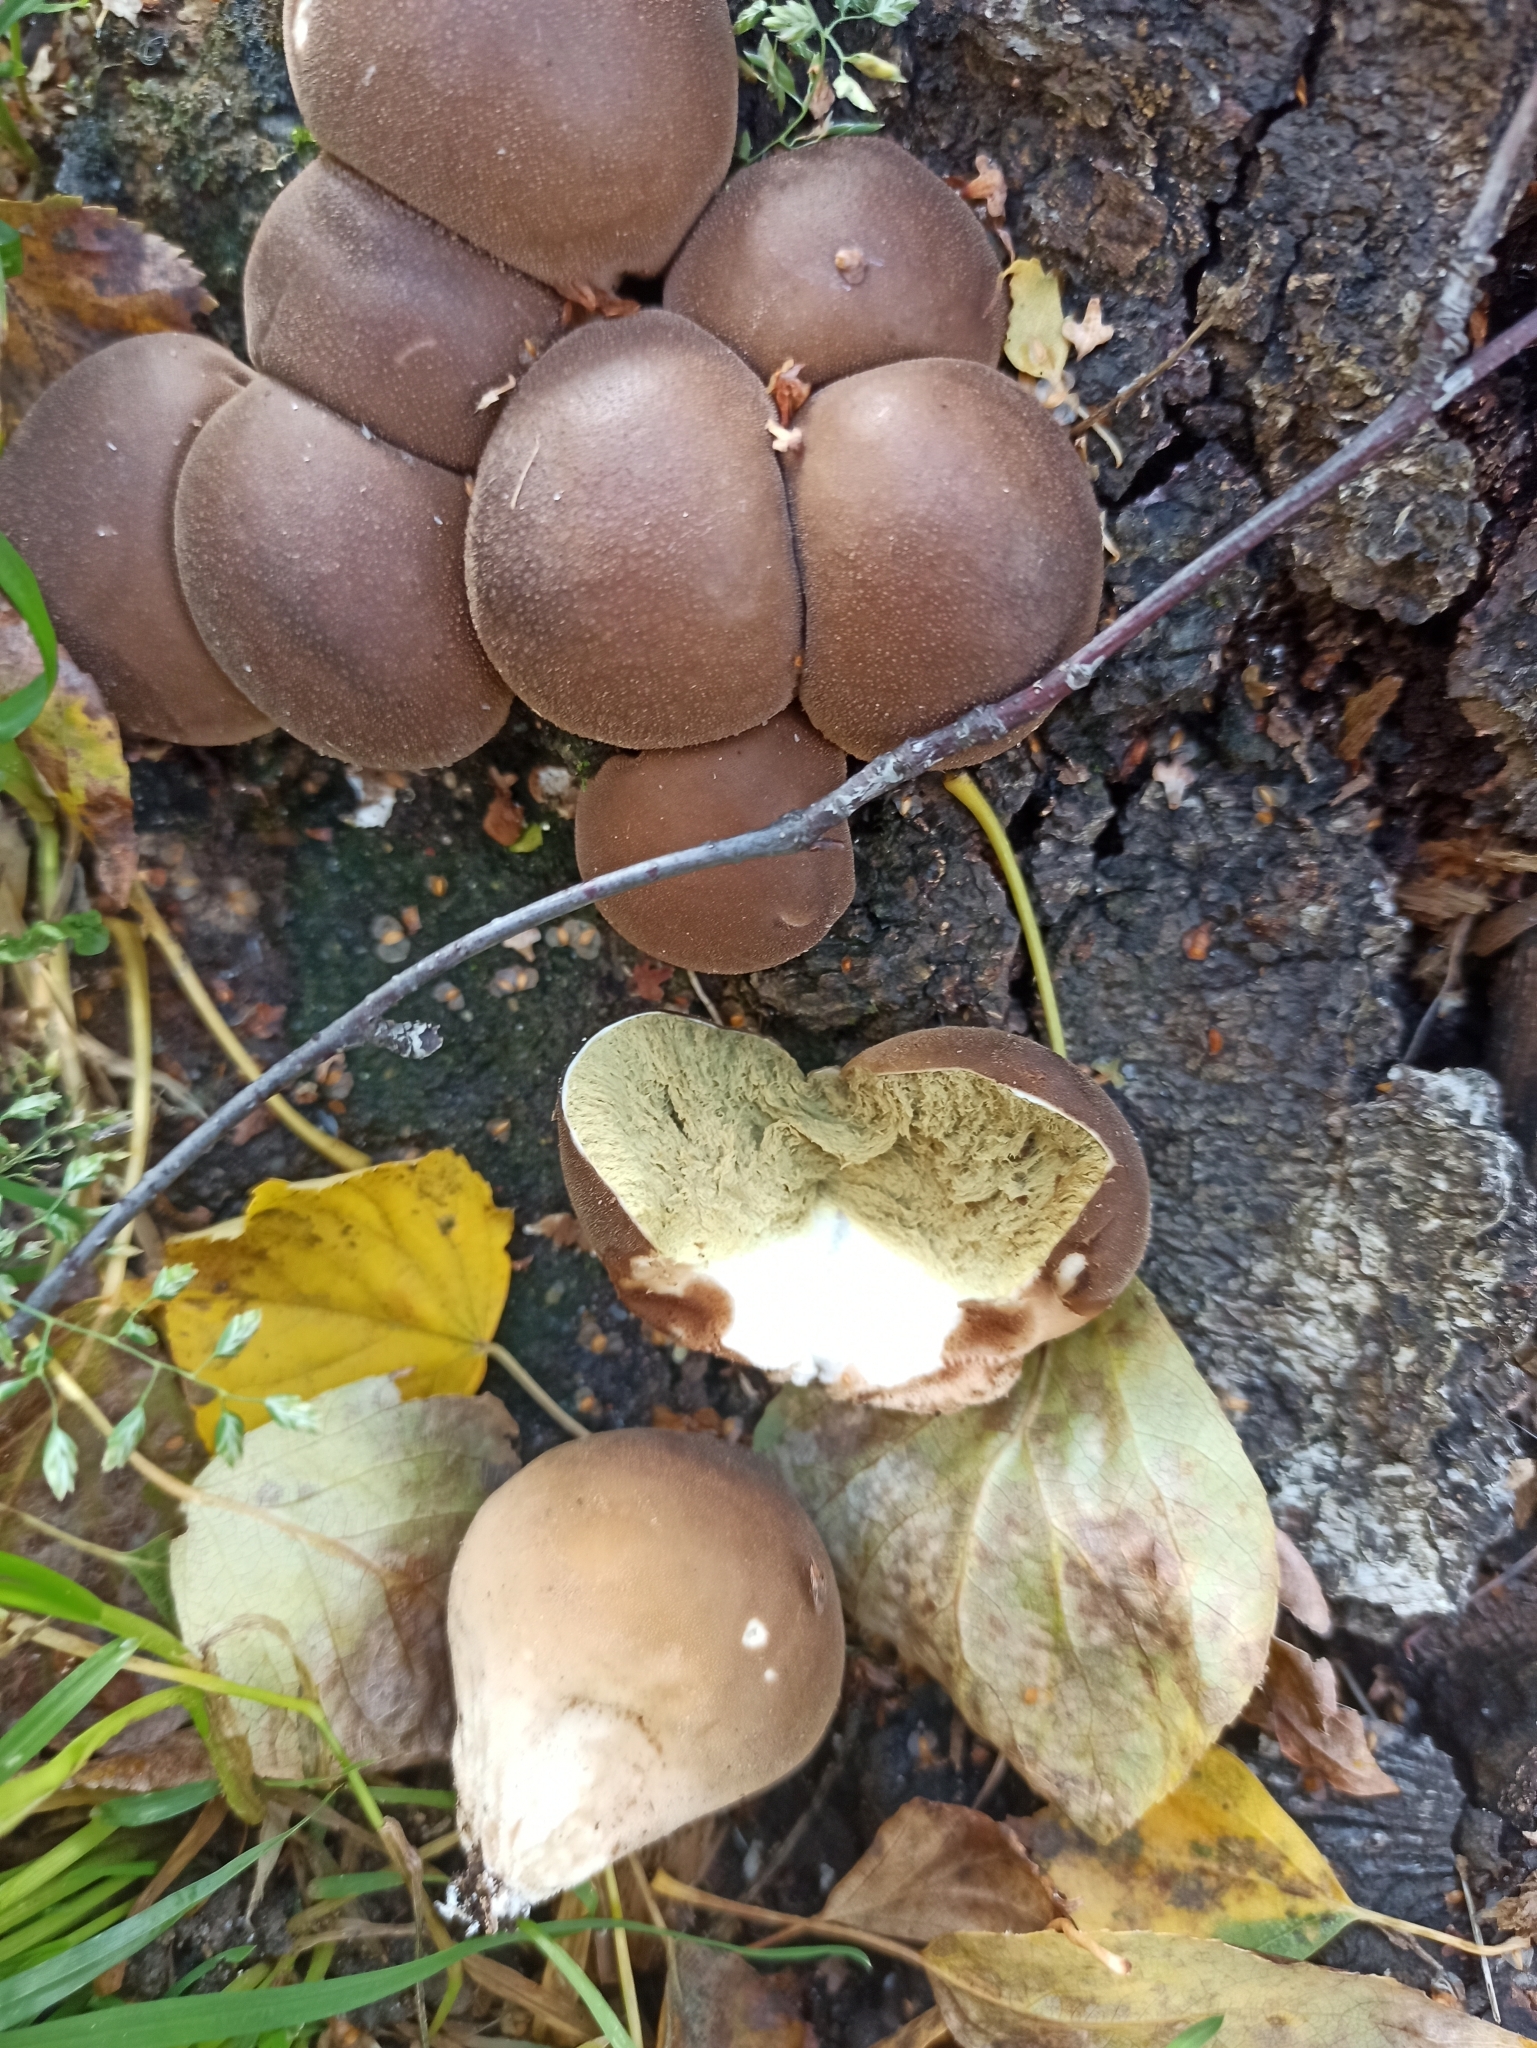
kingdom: Fungi
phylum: Basidiomycota
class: Agaricomycetes
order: Agaricales
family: Lycoperdaceae
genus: Apioperdon
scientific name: Apioperdon pyriforme
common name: Pear-shaped puffball
